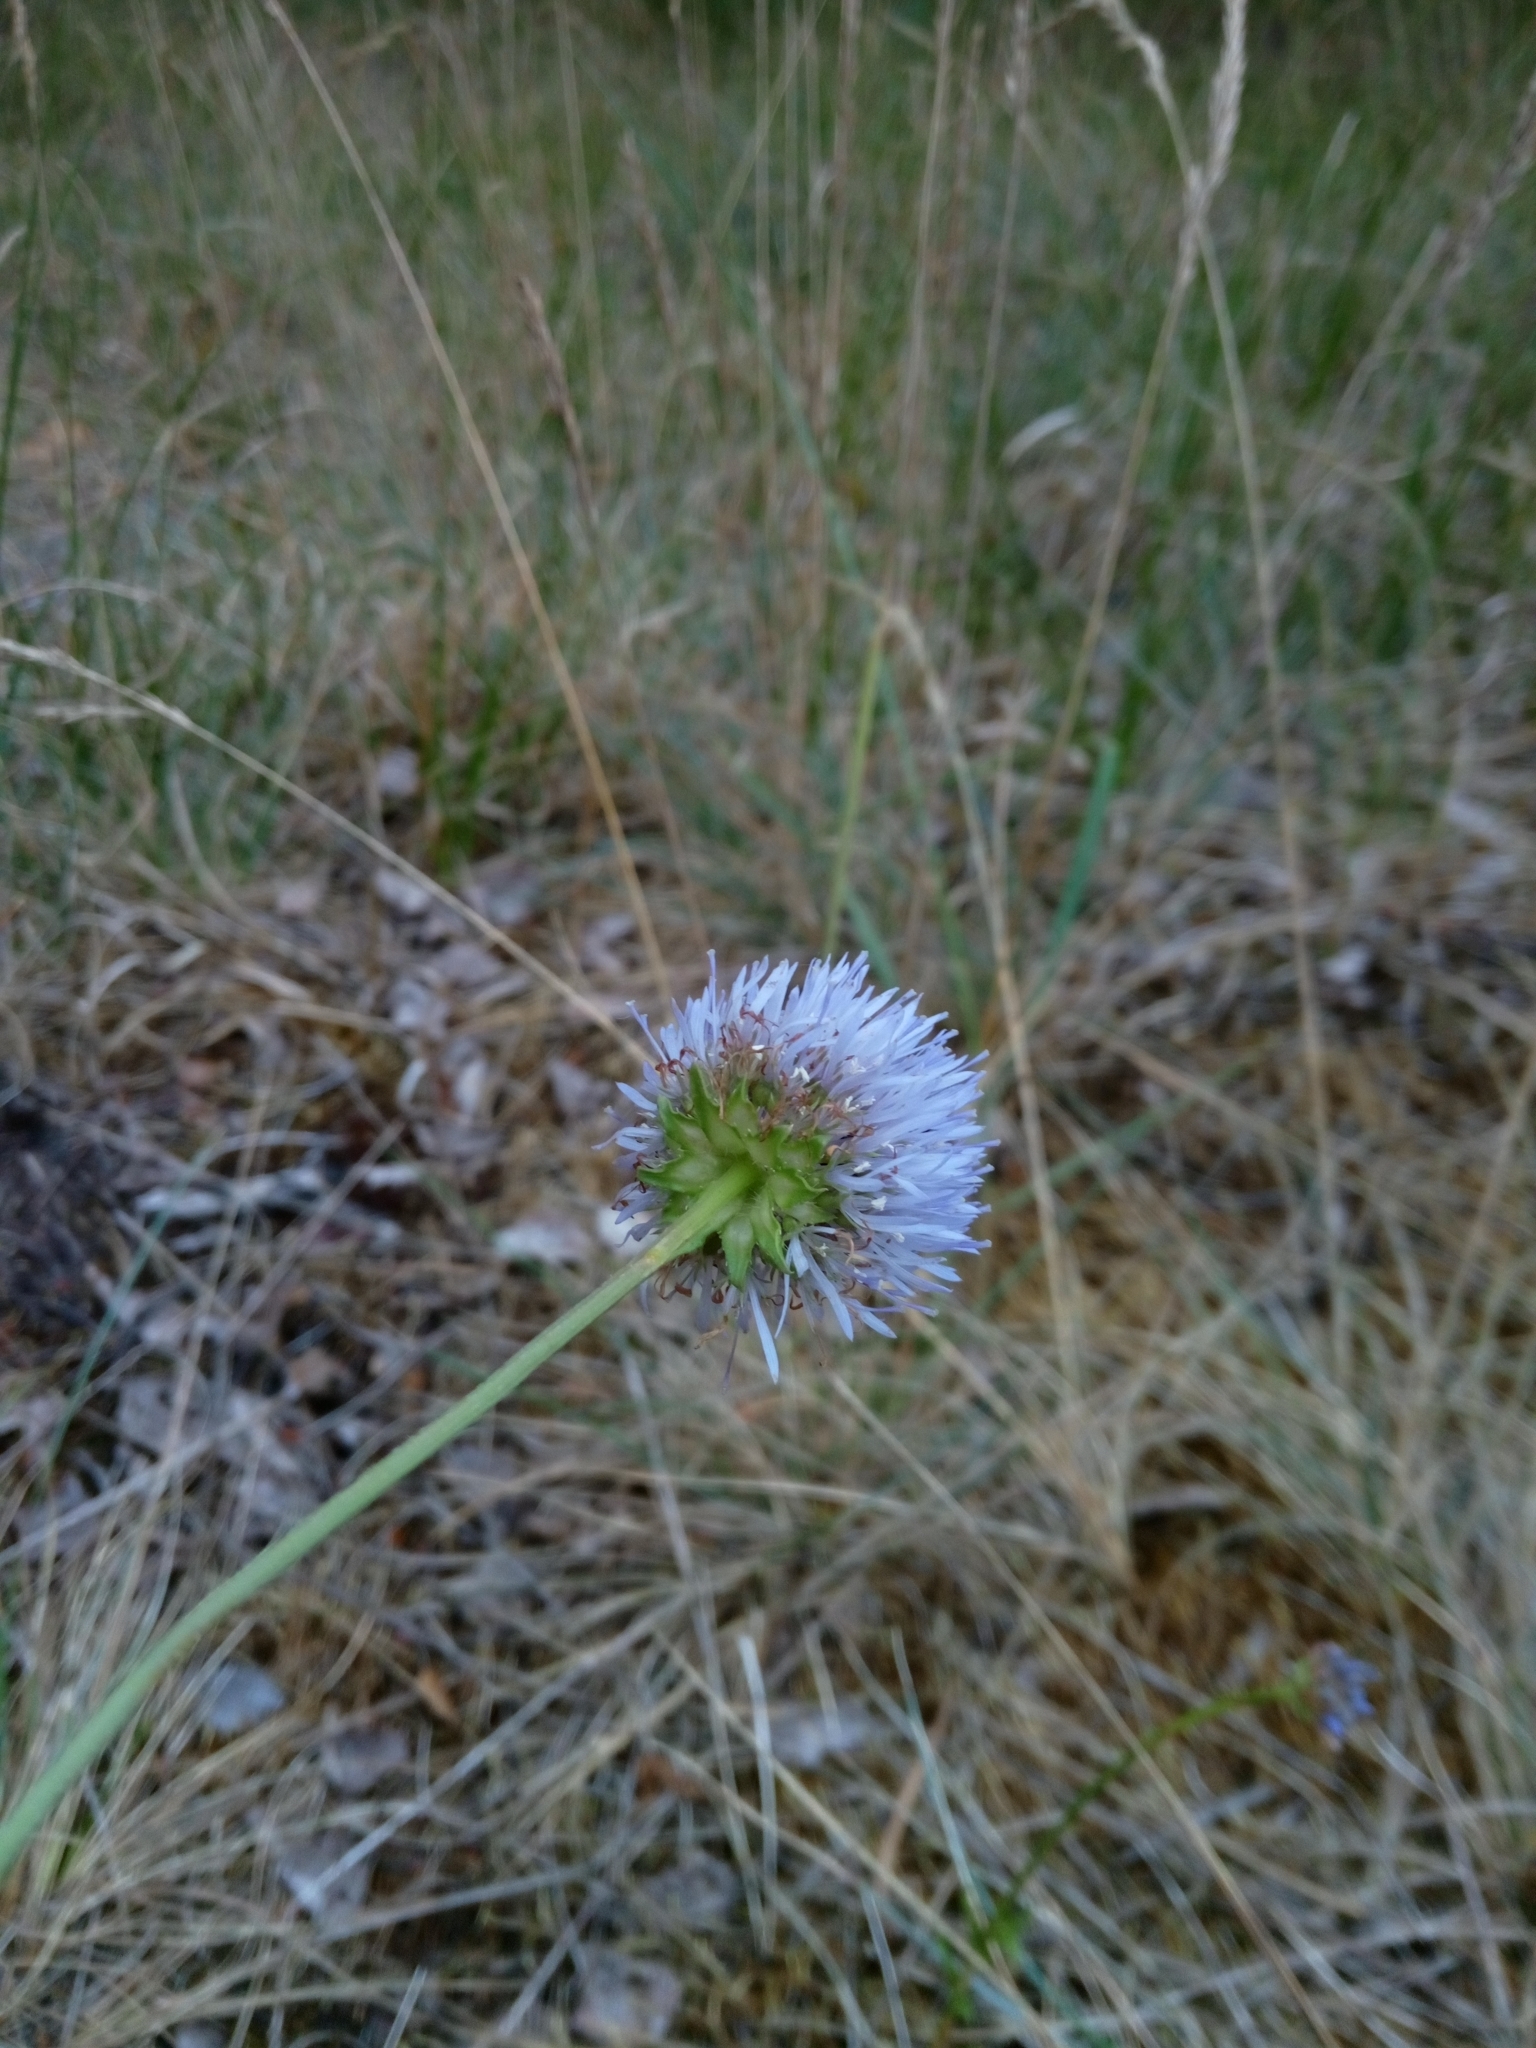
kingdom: Plantae
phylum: Tracheophyta
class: Magnoliopsida
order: Asterales
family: Campanulaceae
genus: Jasione
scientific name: Jasione montana
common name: Sheep's-bit
